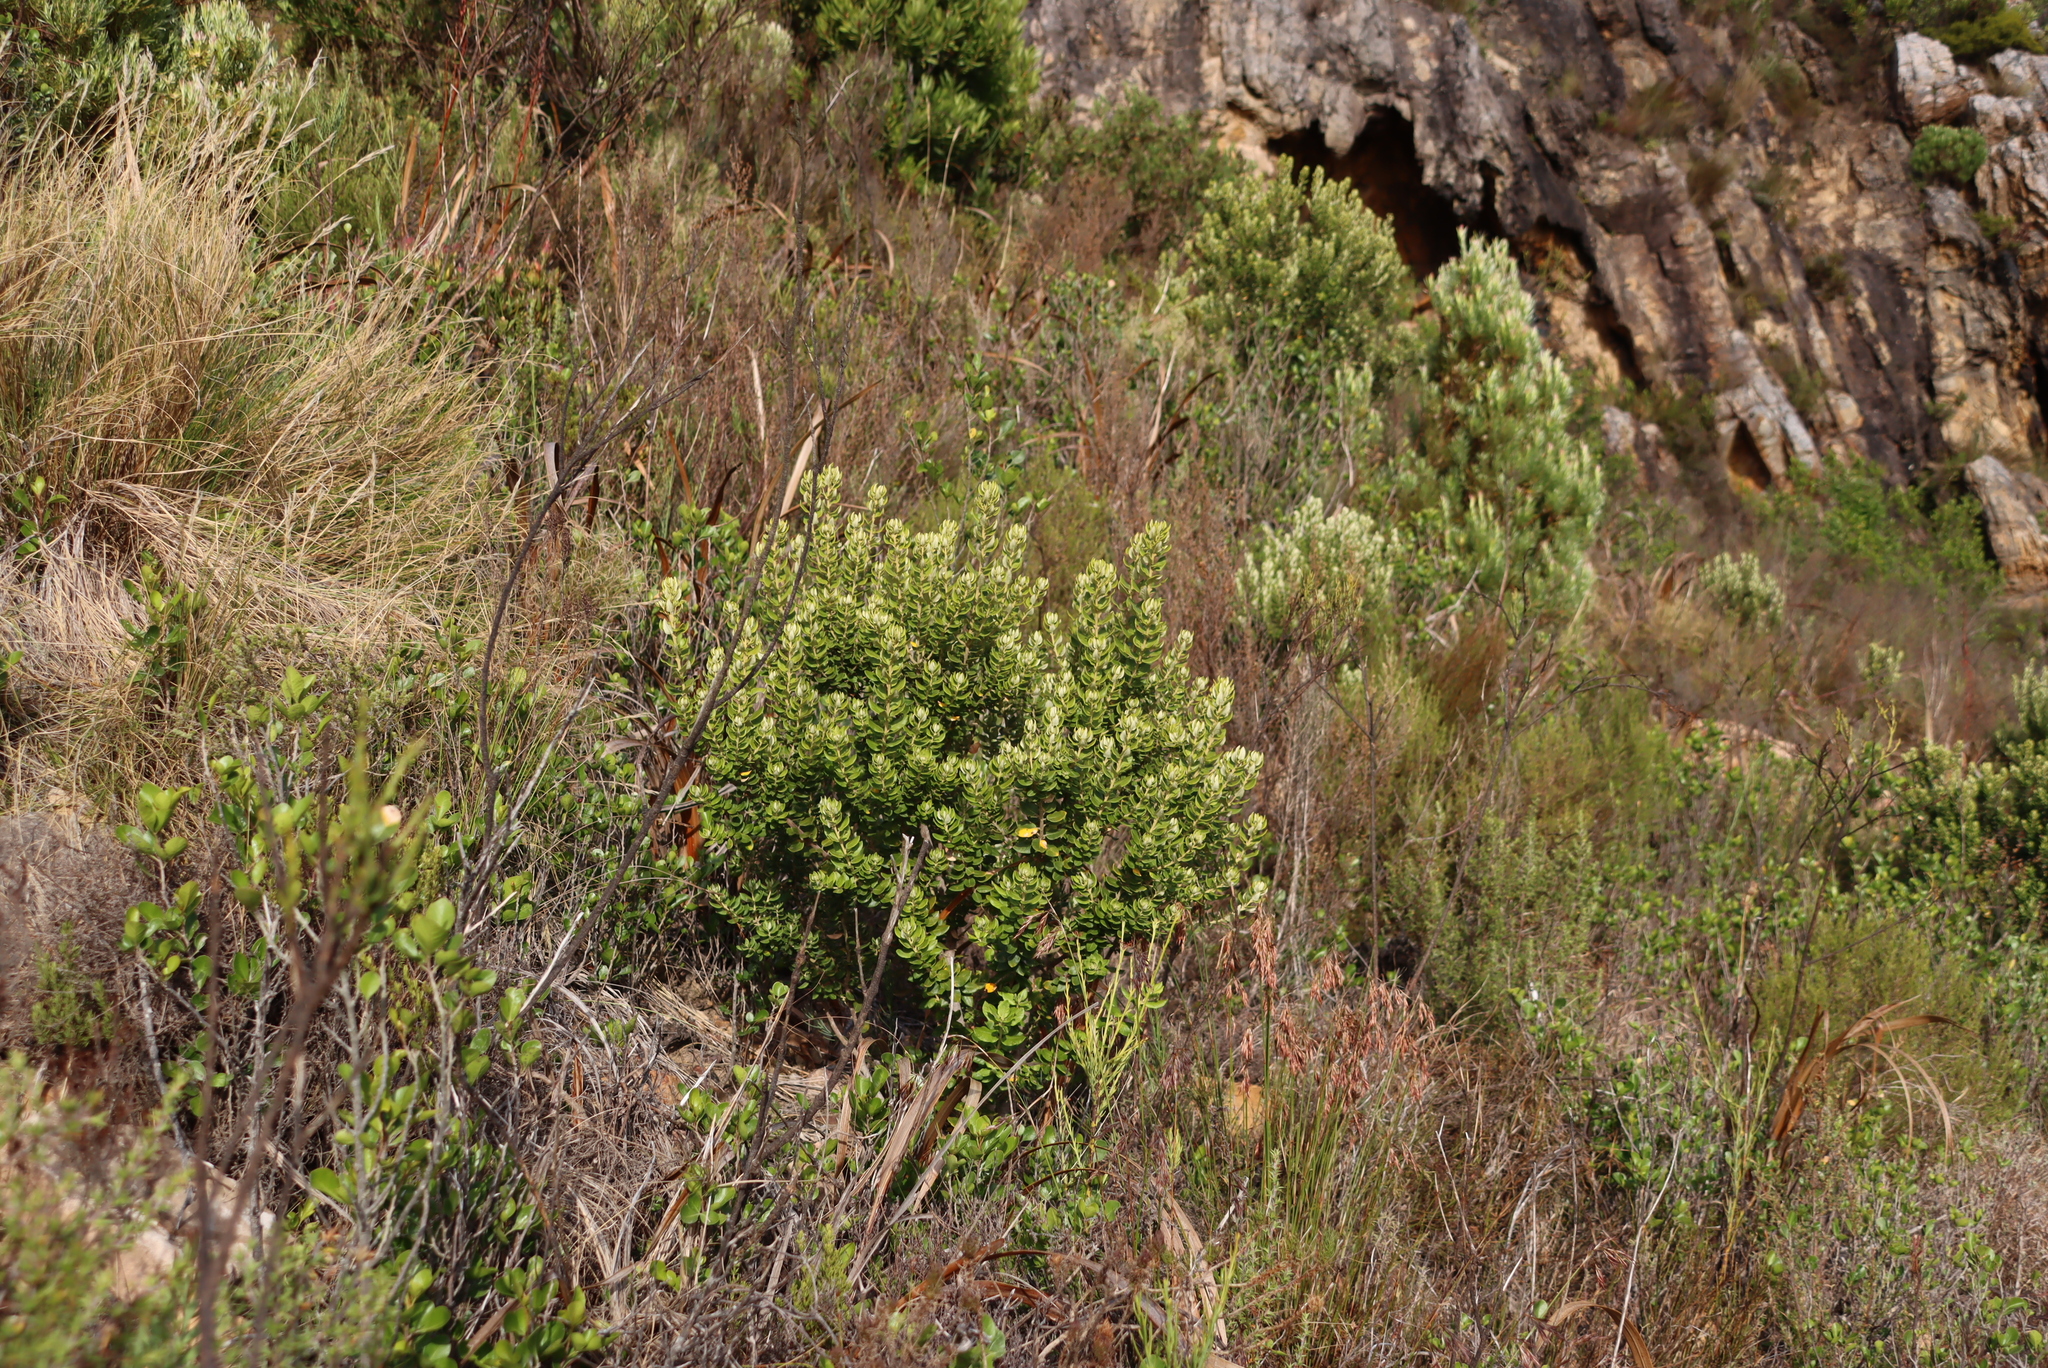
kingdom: Plantae
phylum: Tracheophyta
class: Magnoliopsida
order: Rosales
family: Rhamnaceae
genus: Phylica
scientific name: Phylica buxifolia
